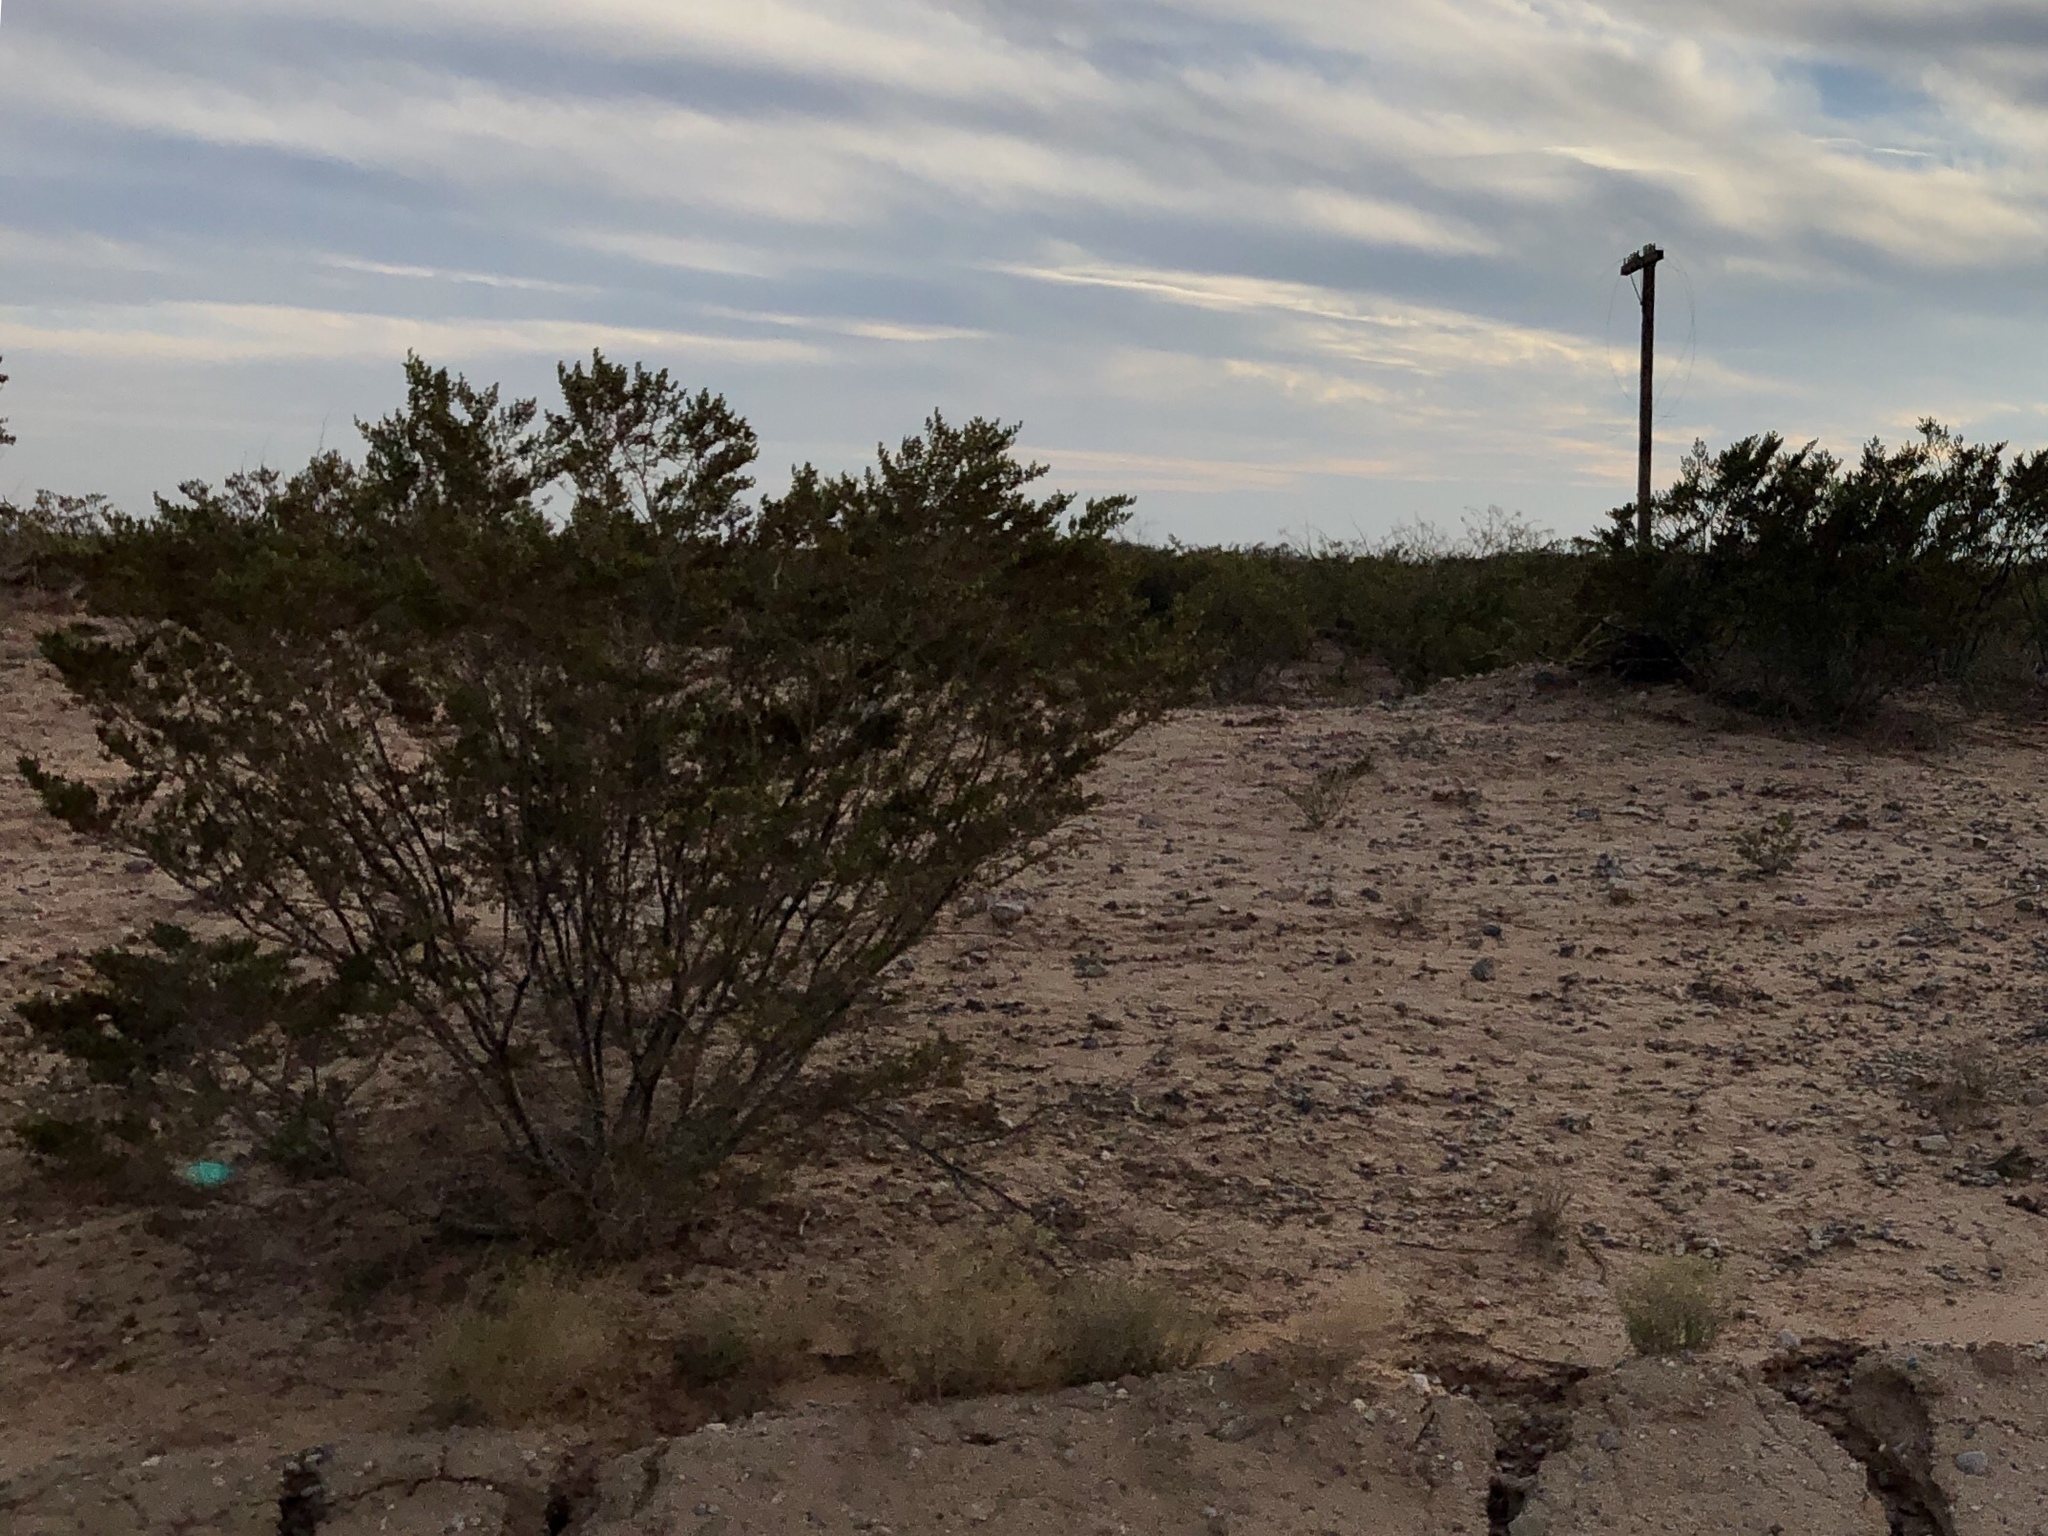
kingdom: Plantae
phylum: Tracheophyta
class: Magnoliopsida
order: Zygophyllales
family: Zygophyllaceae
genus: Larrea
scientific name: Larrea tridentata
